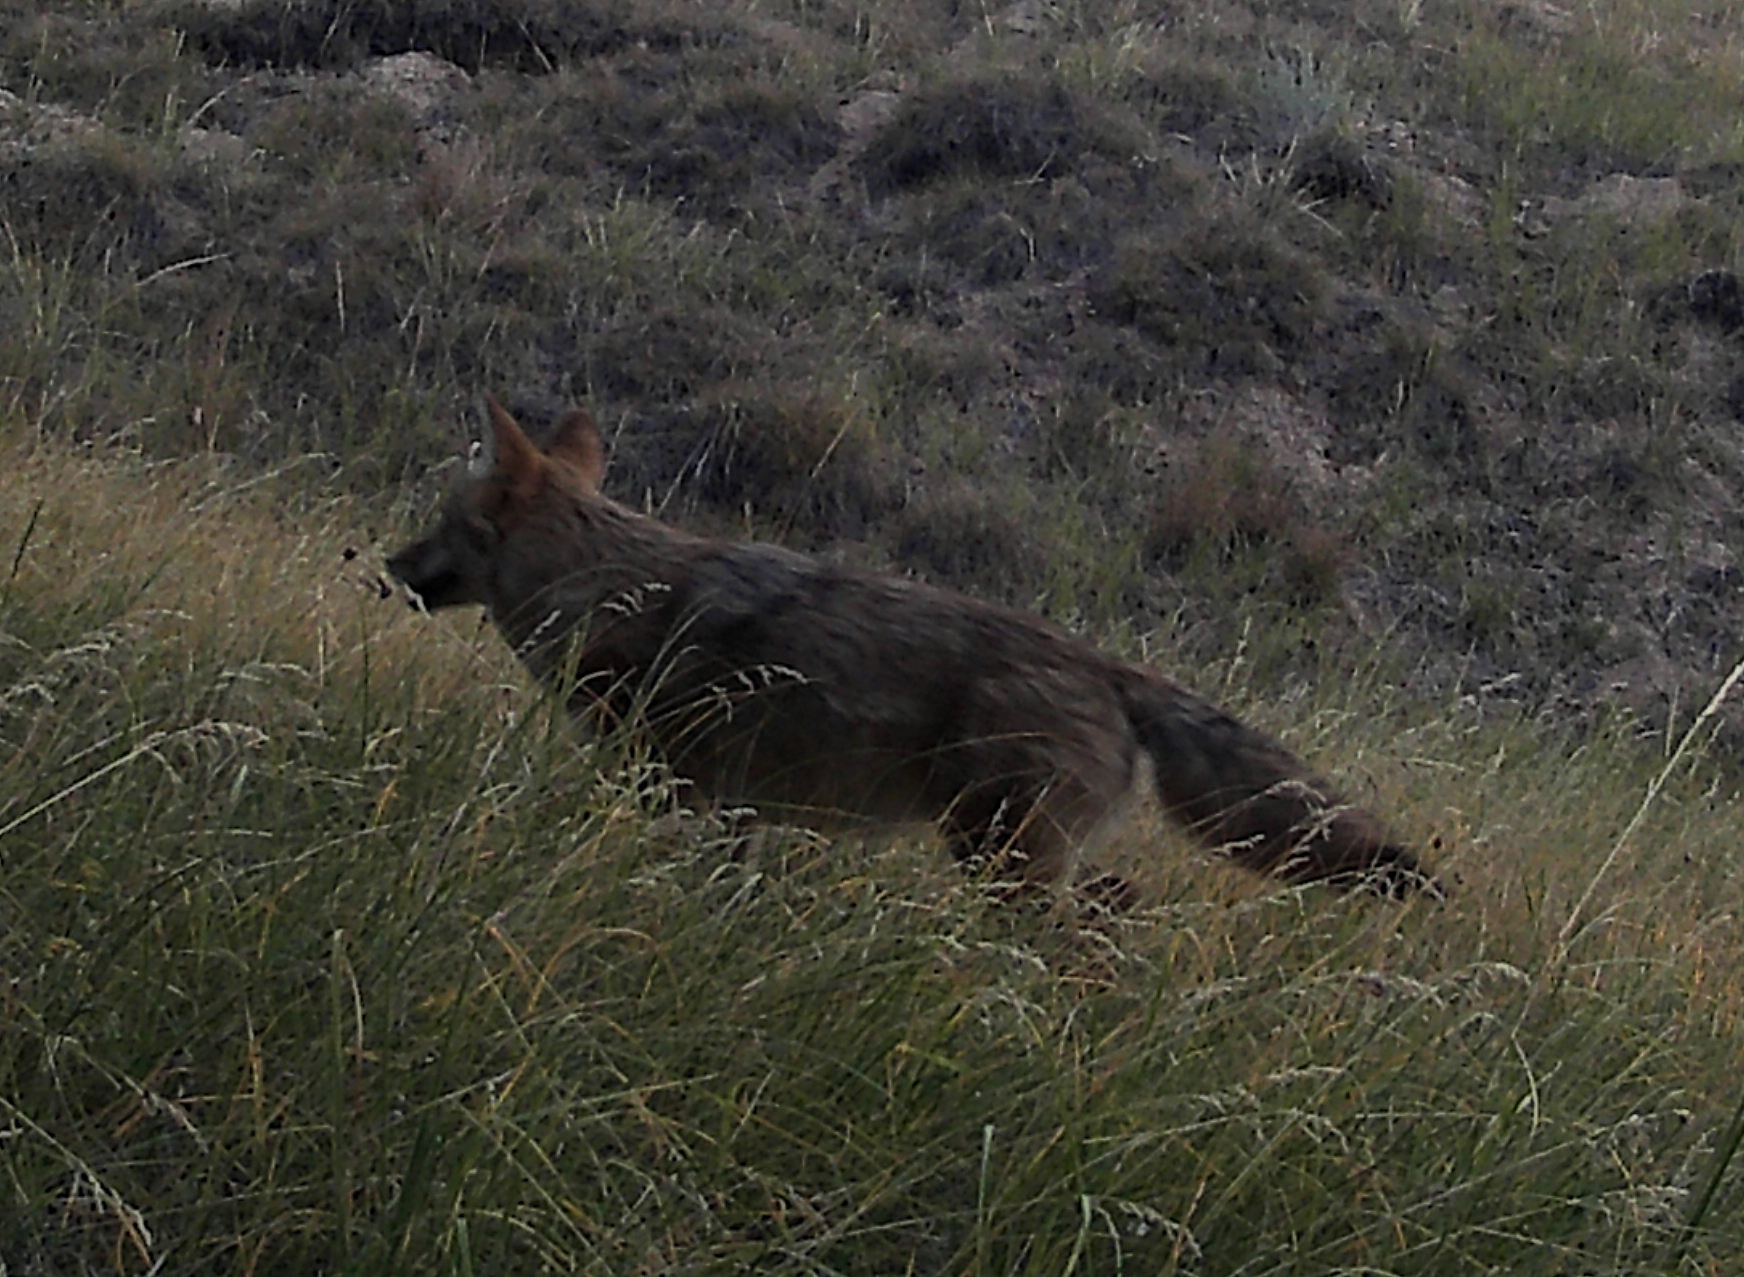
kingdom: Animalia
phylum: Chordata
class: Mammalia
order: Carnivora
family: Canidae
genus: Canis
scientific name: Canis latrans
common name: Coyote
